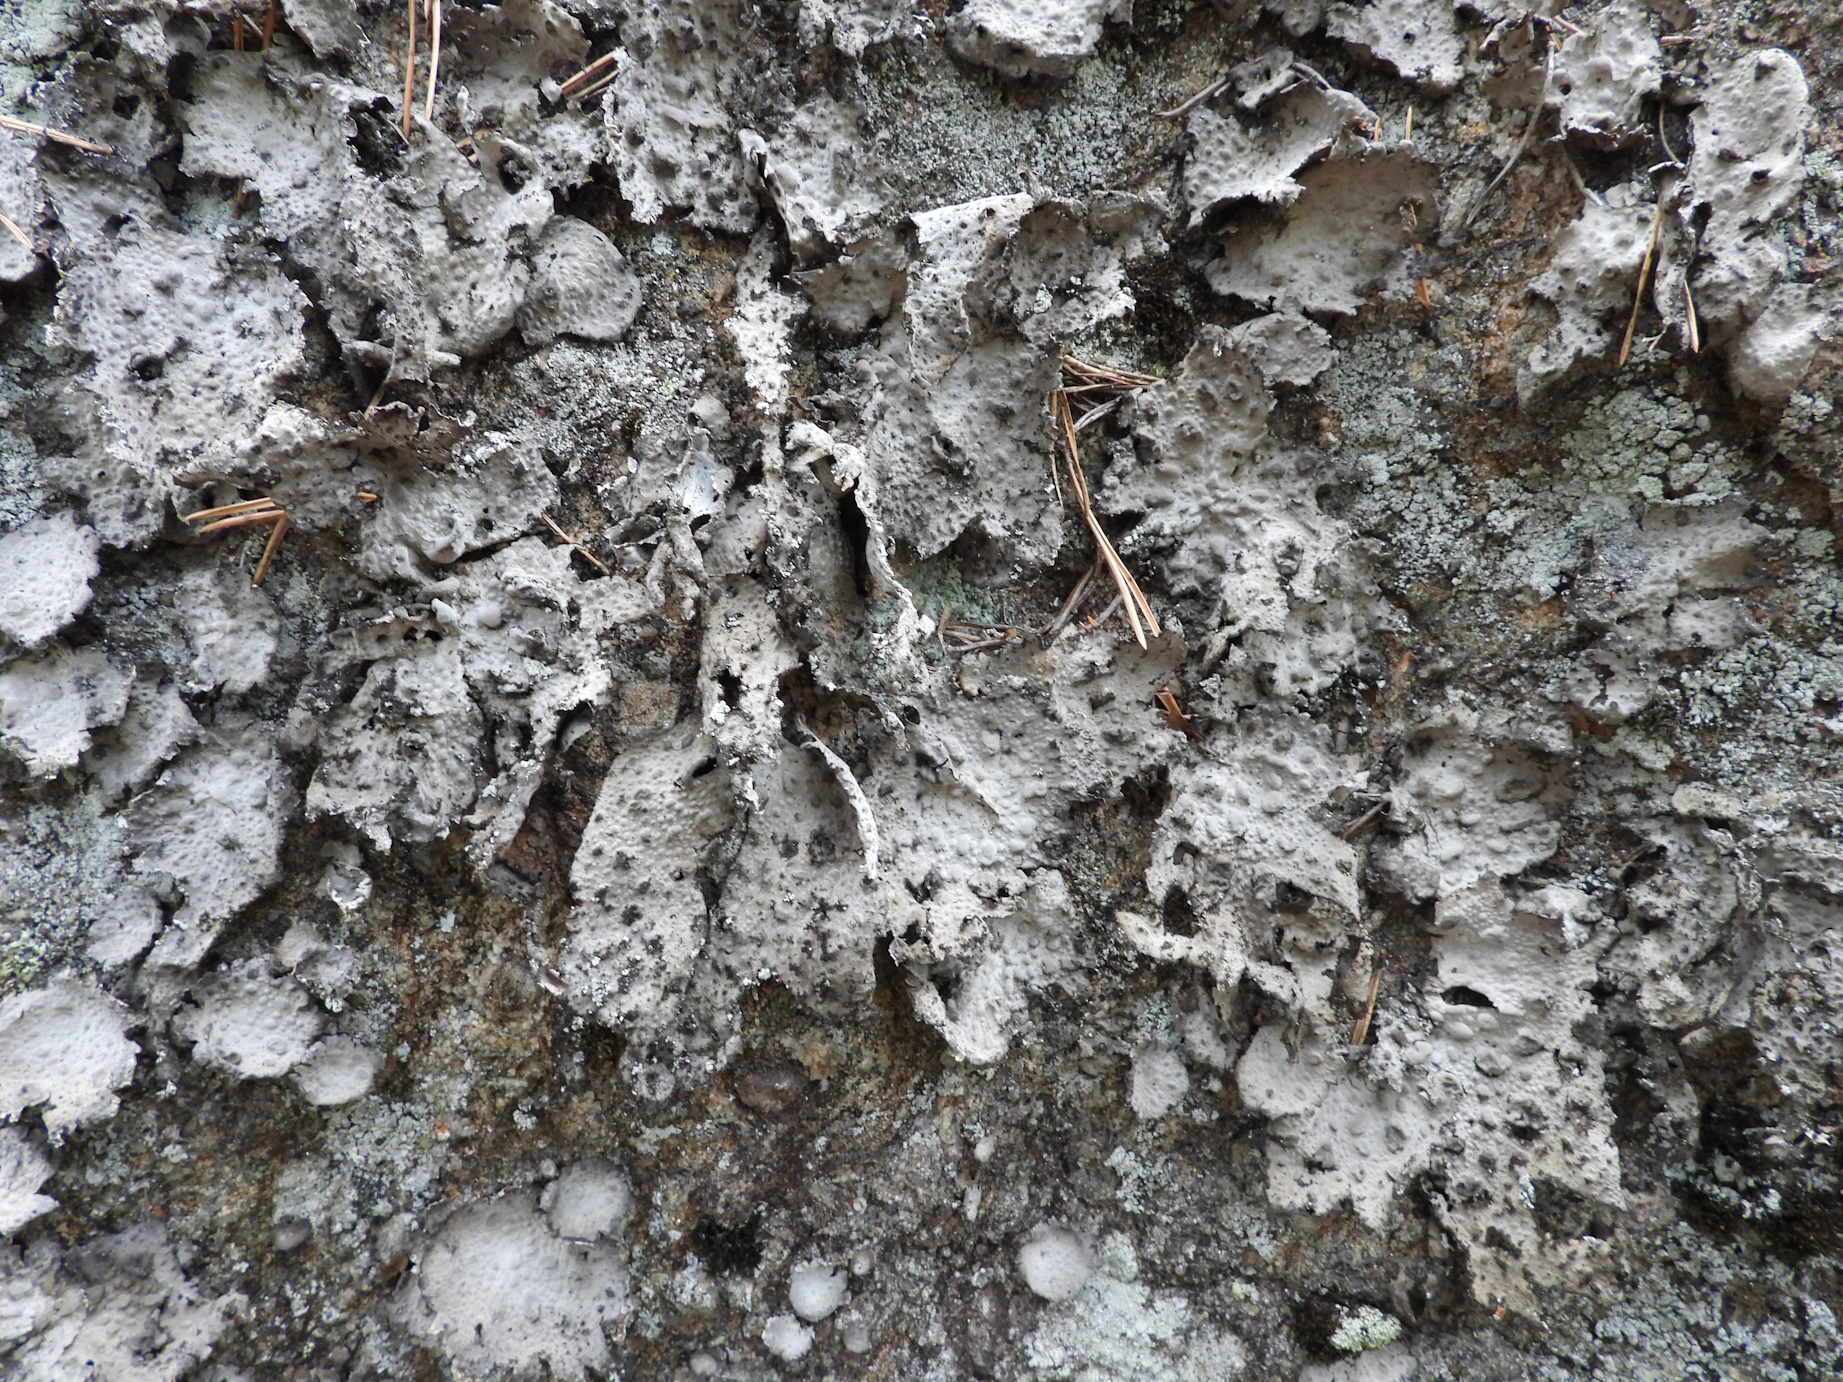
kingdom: Fungi
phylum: Ascomycota
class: Lecanoromycetes
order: Umbilicariales
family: Umbilicariaceae
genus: Lasallia
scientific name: Lasallia pustulata
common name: Blistered toadskin lichen
